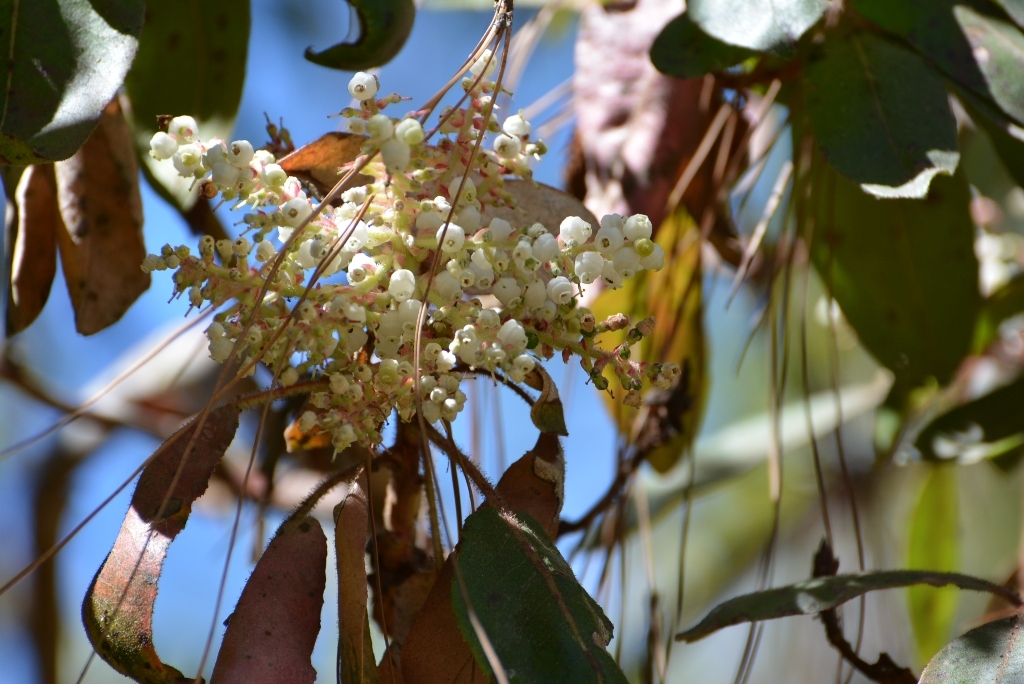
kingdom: Plantae
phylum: Tracheophyta
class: Magnoliopsida
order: Ericales
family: Ericaceae
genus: Arbutus
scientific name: Arbutus xalapensis
